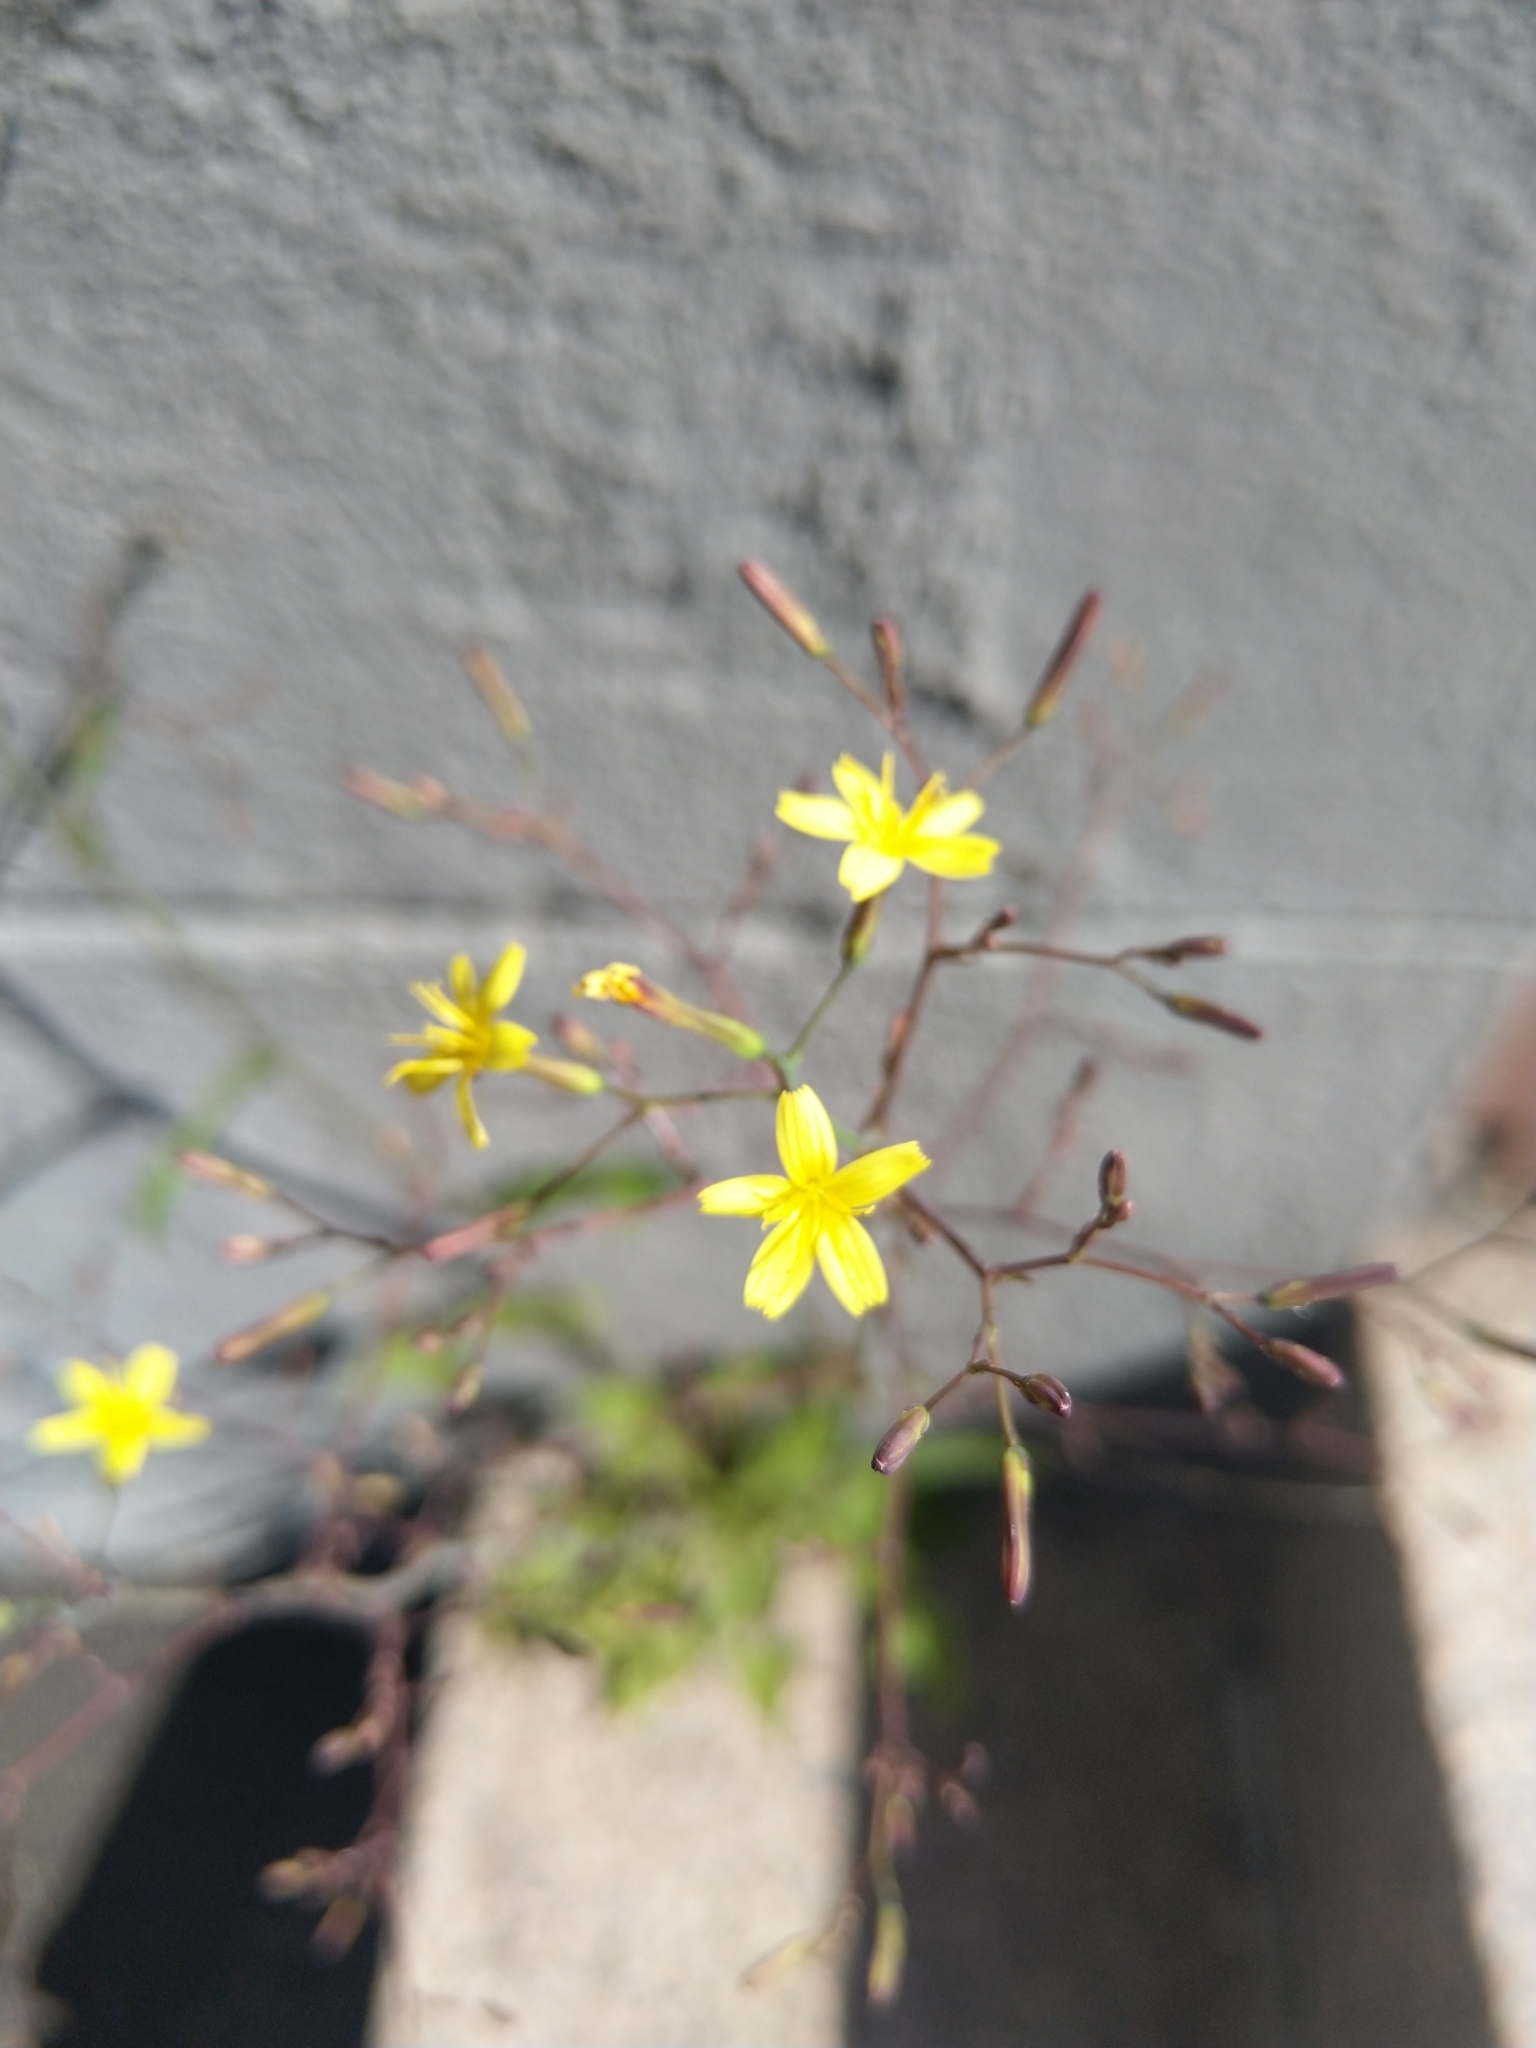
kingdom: Plantae
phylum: Tracheophyta
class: Magnoliopsida
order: Asterales
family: Asteraceae
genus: Mycelis
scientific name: Mycelis muralis
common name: Wall lettuce
